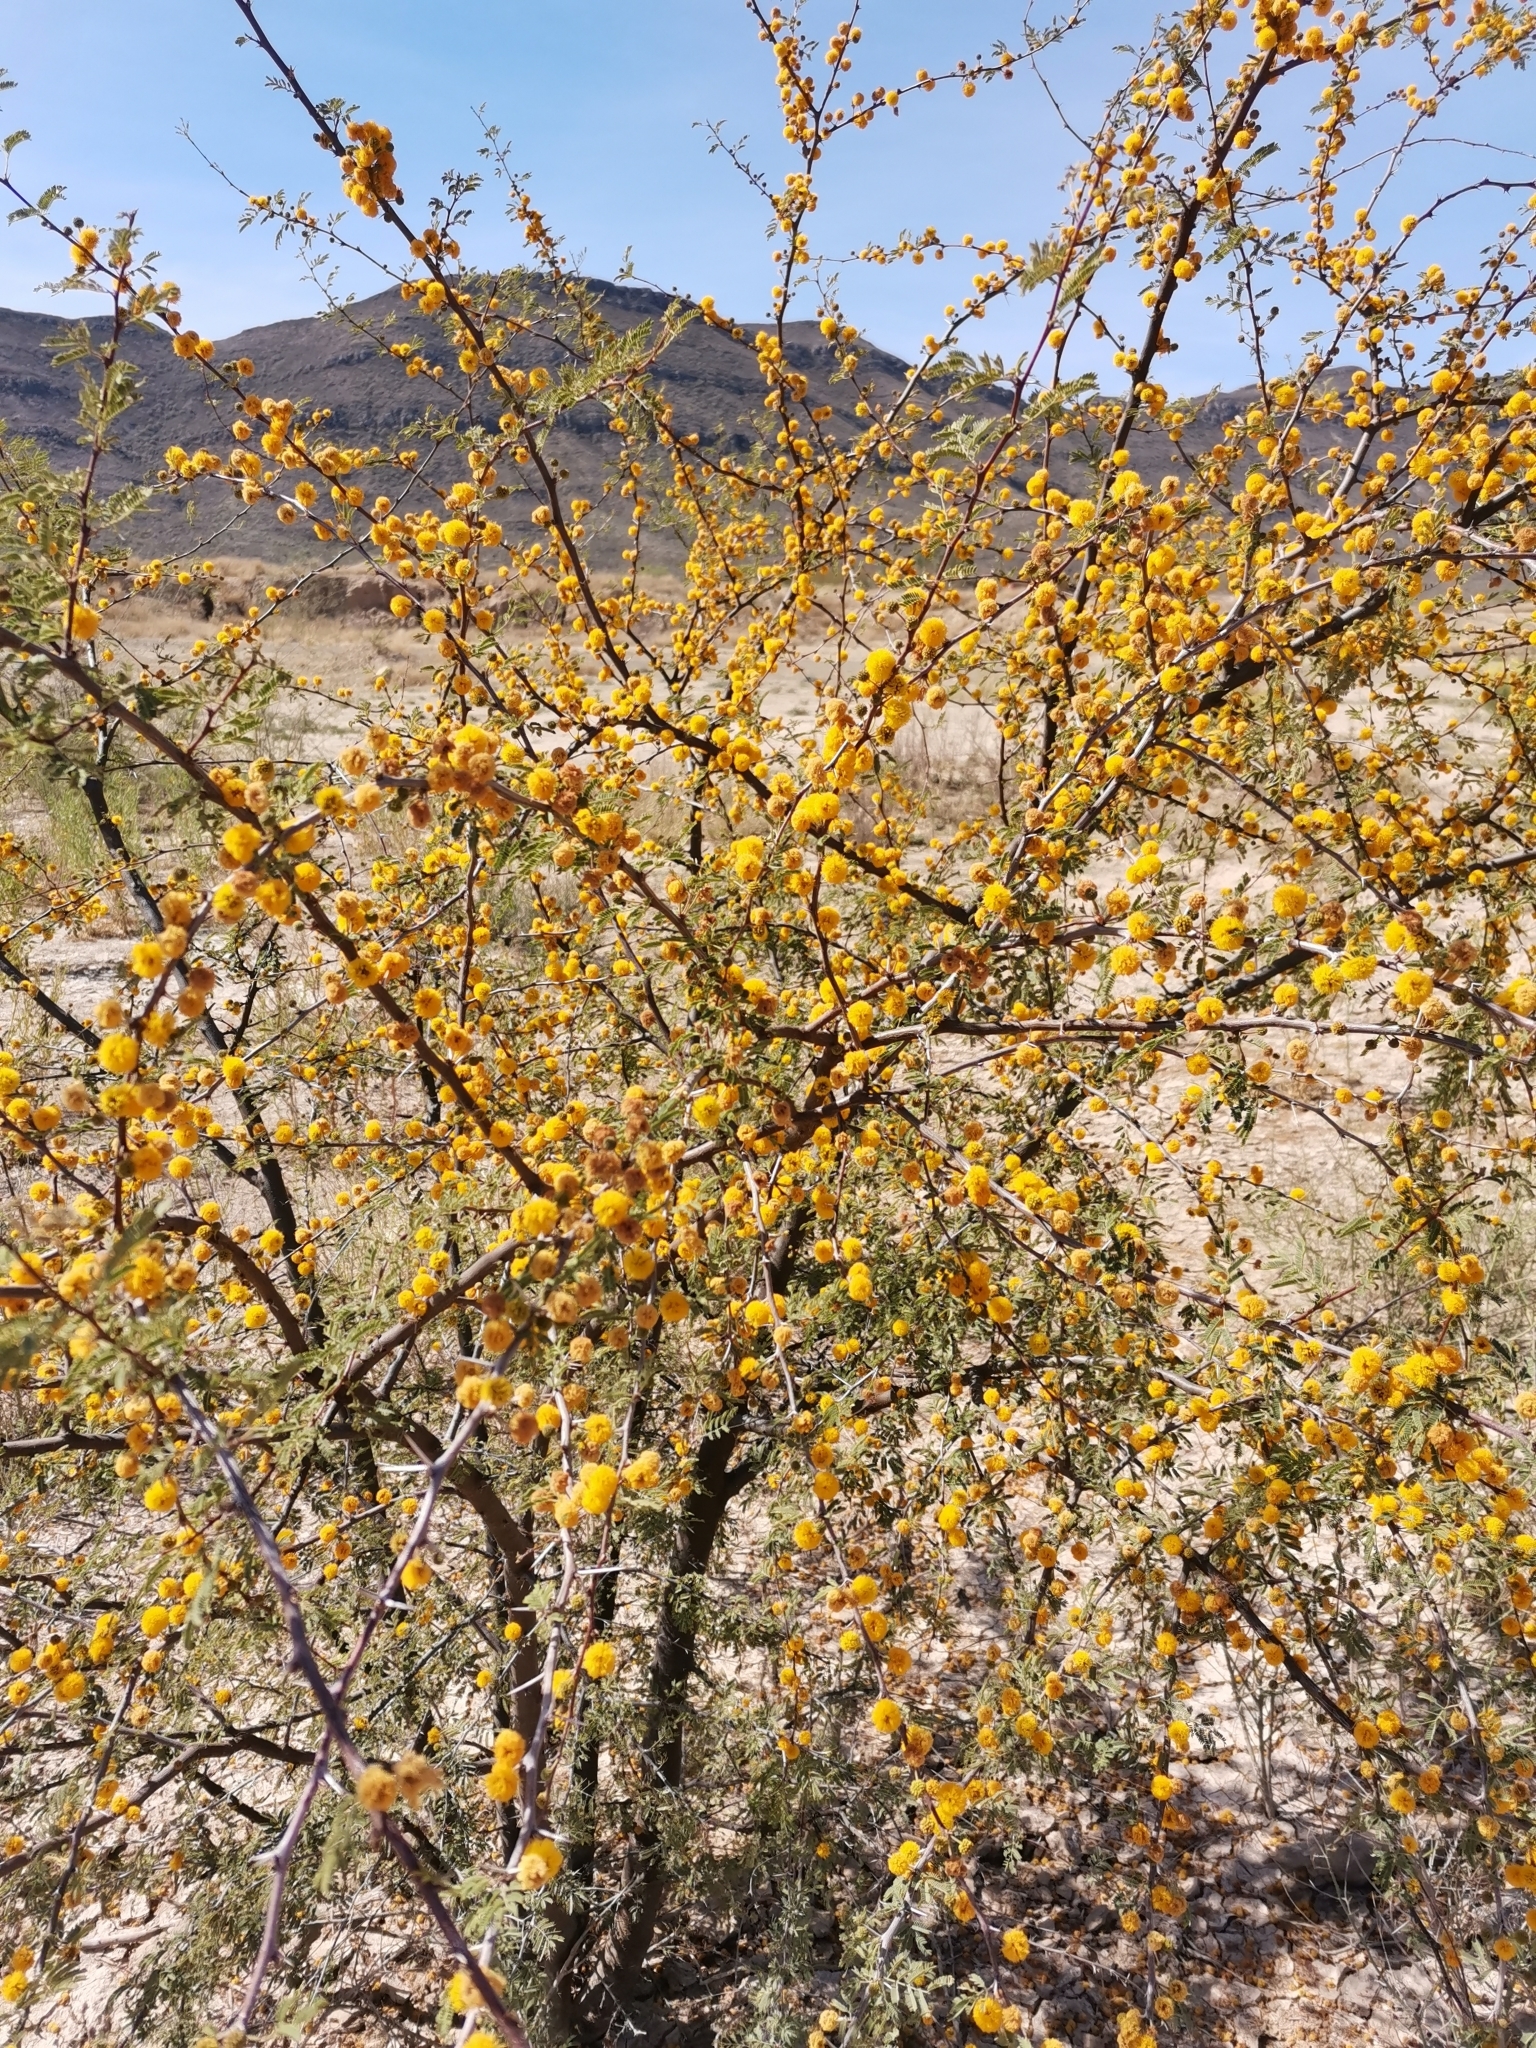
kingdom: Plantae
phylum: Tracheophyta
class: Magnoliopsida
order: Fabales
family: Fabaceae
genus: Vachellia
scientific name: Vachellia farnesiana
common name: Sweet acacia
